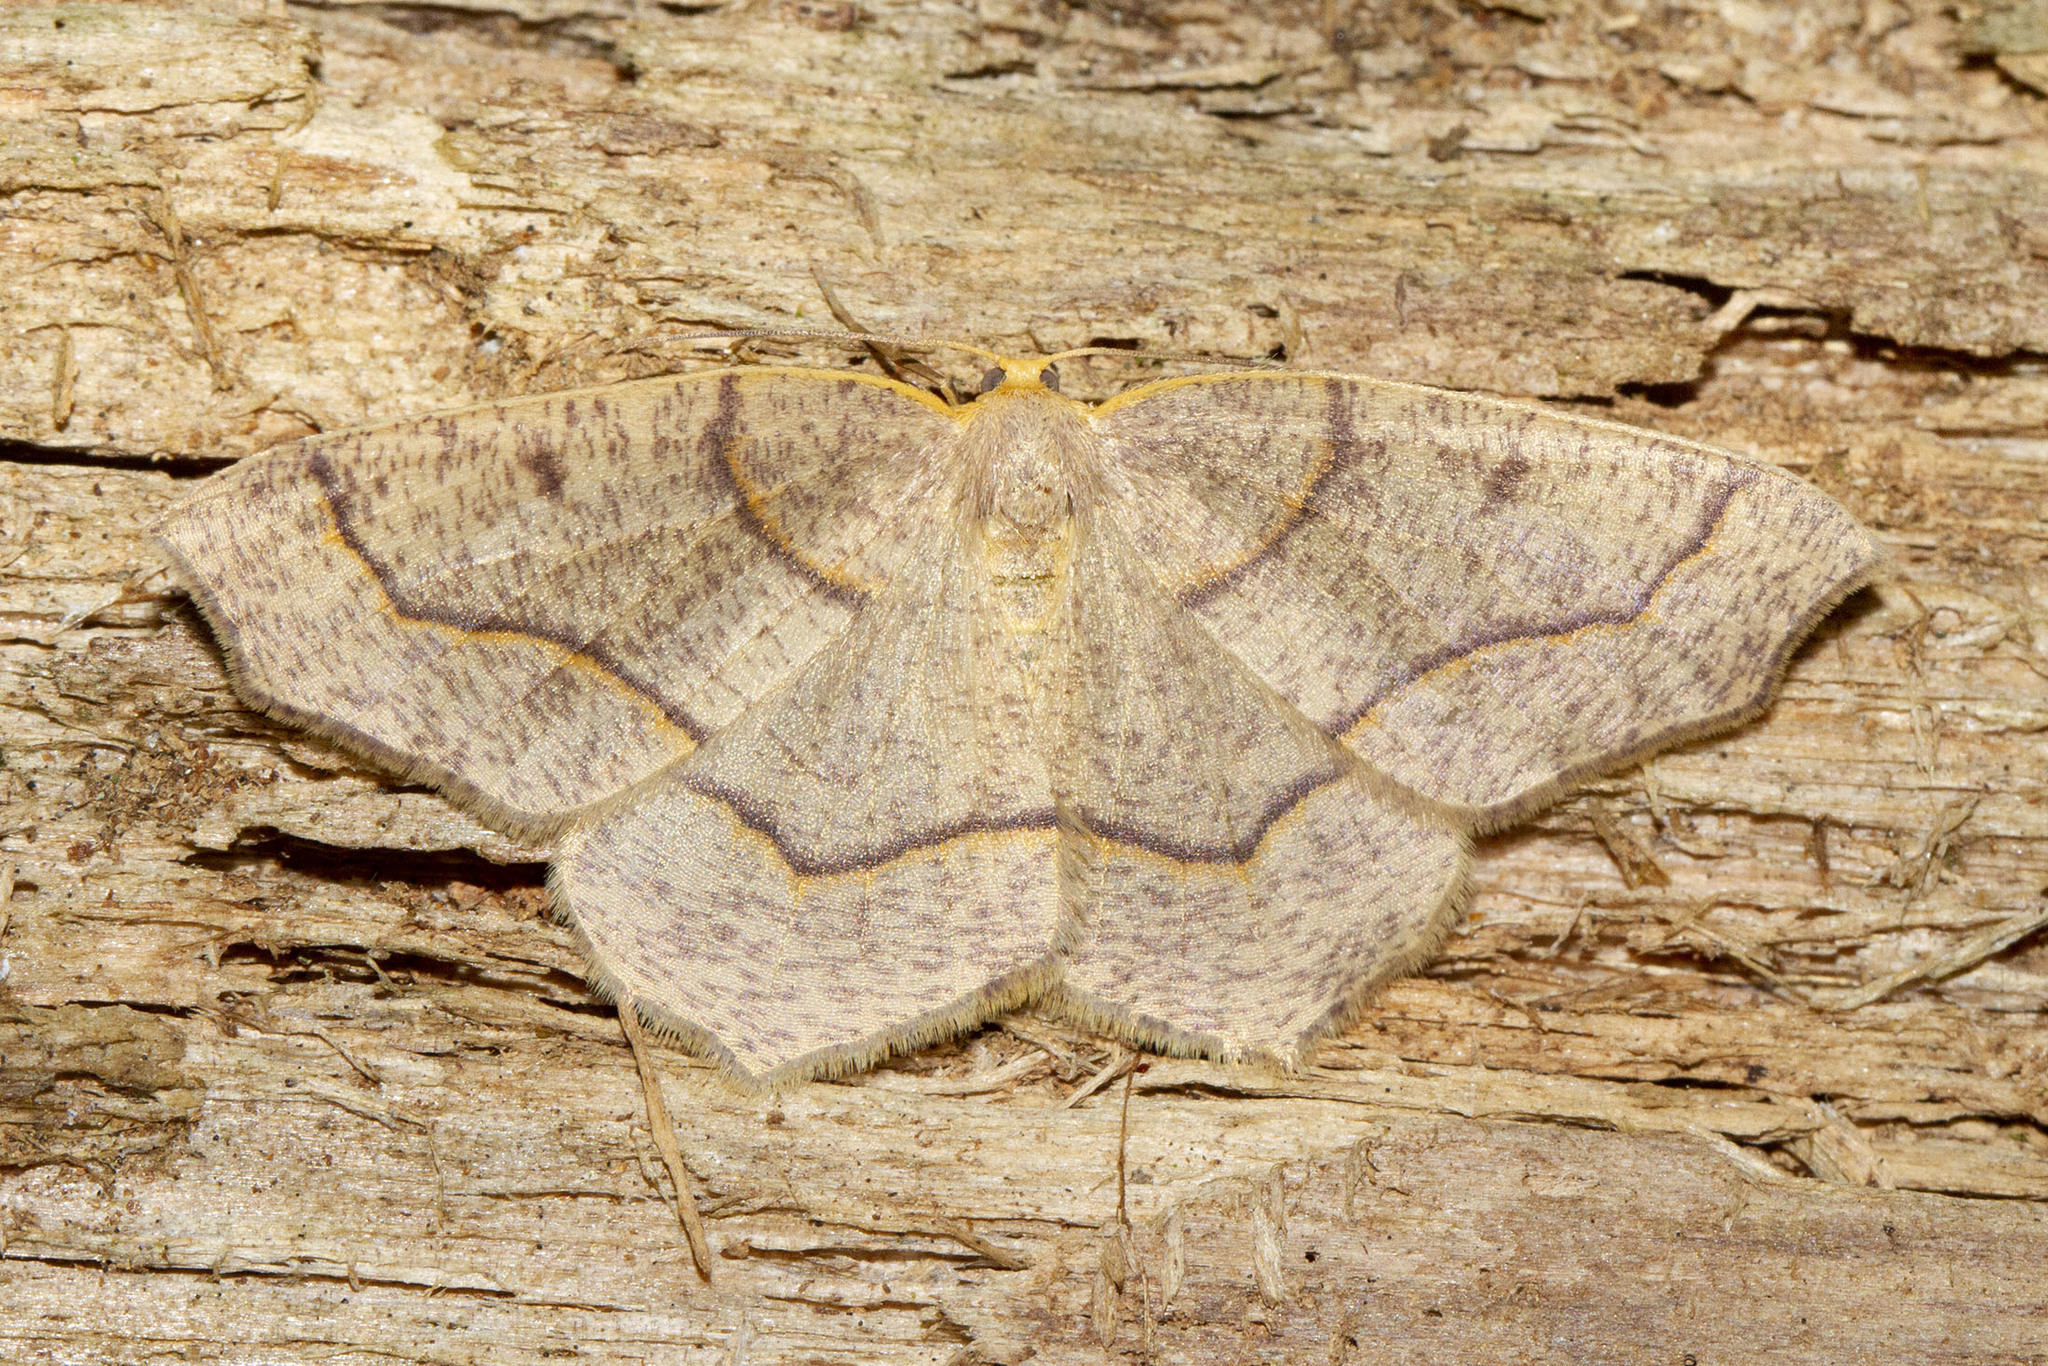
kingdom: Animalia
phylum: Arthropoda
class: Insecta
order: Lepidoptera
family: Geometridae
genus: Lambdina
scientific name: Lambdina fiscellaria
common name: Hemlock looper
